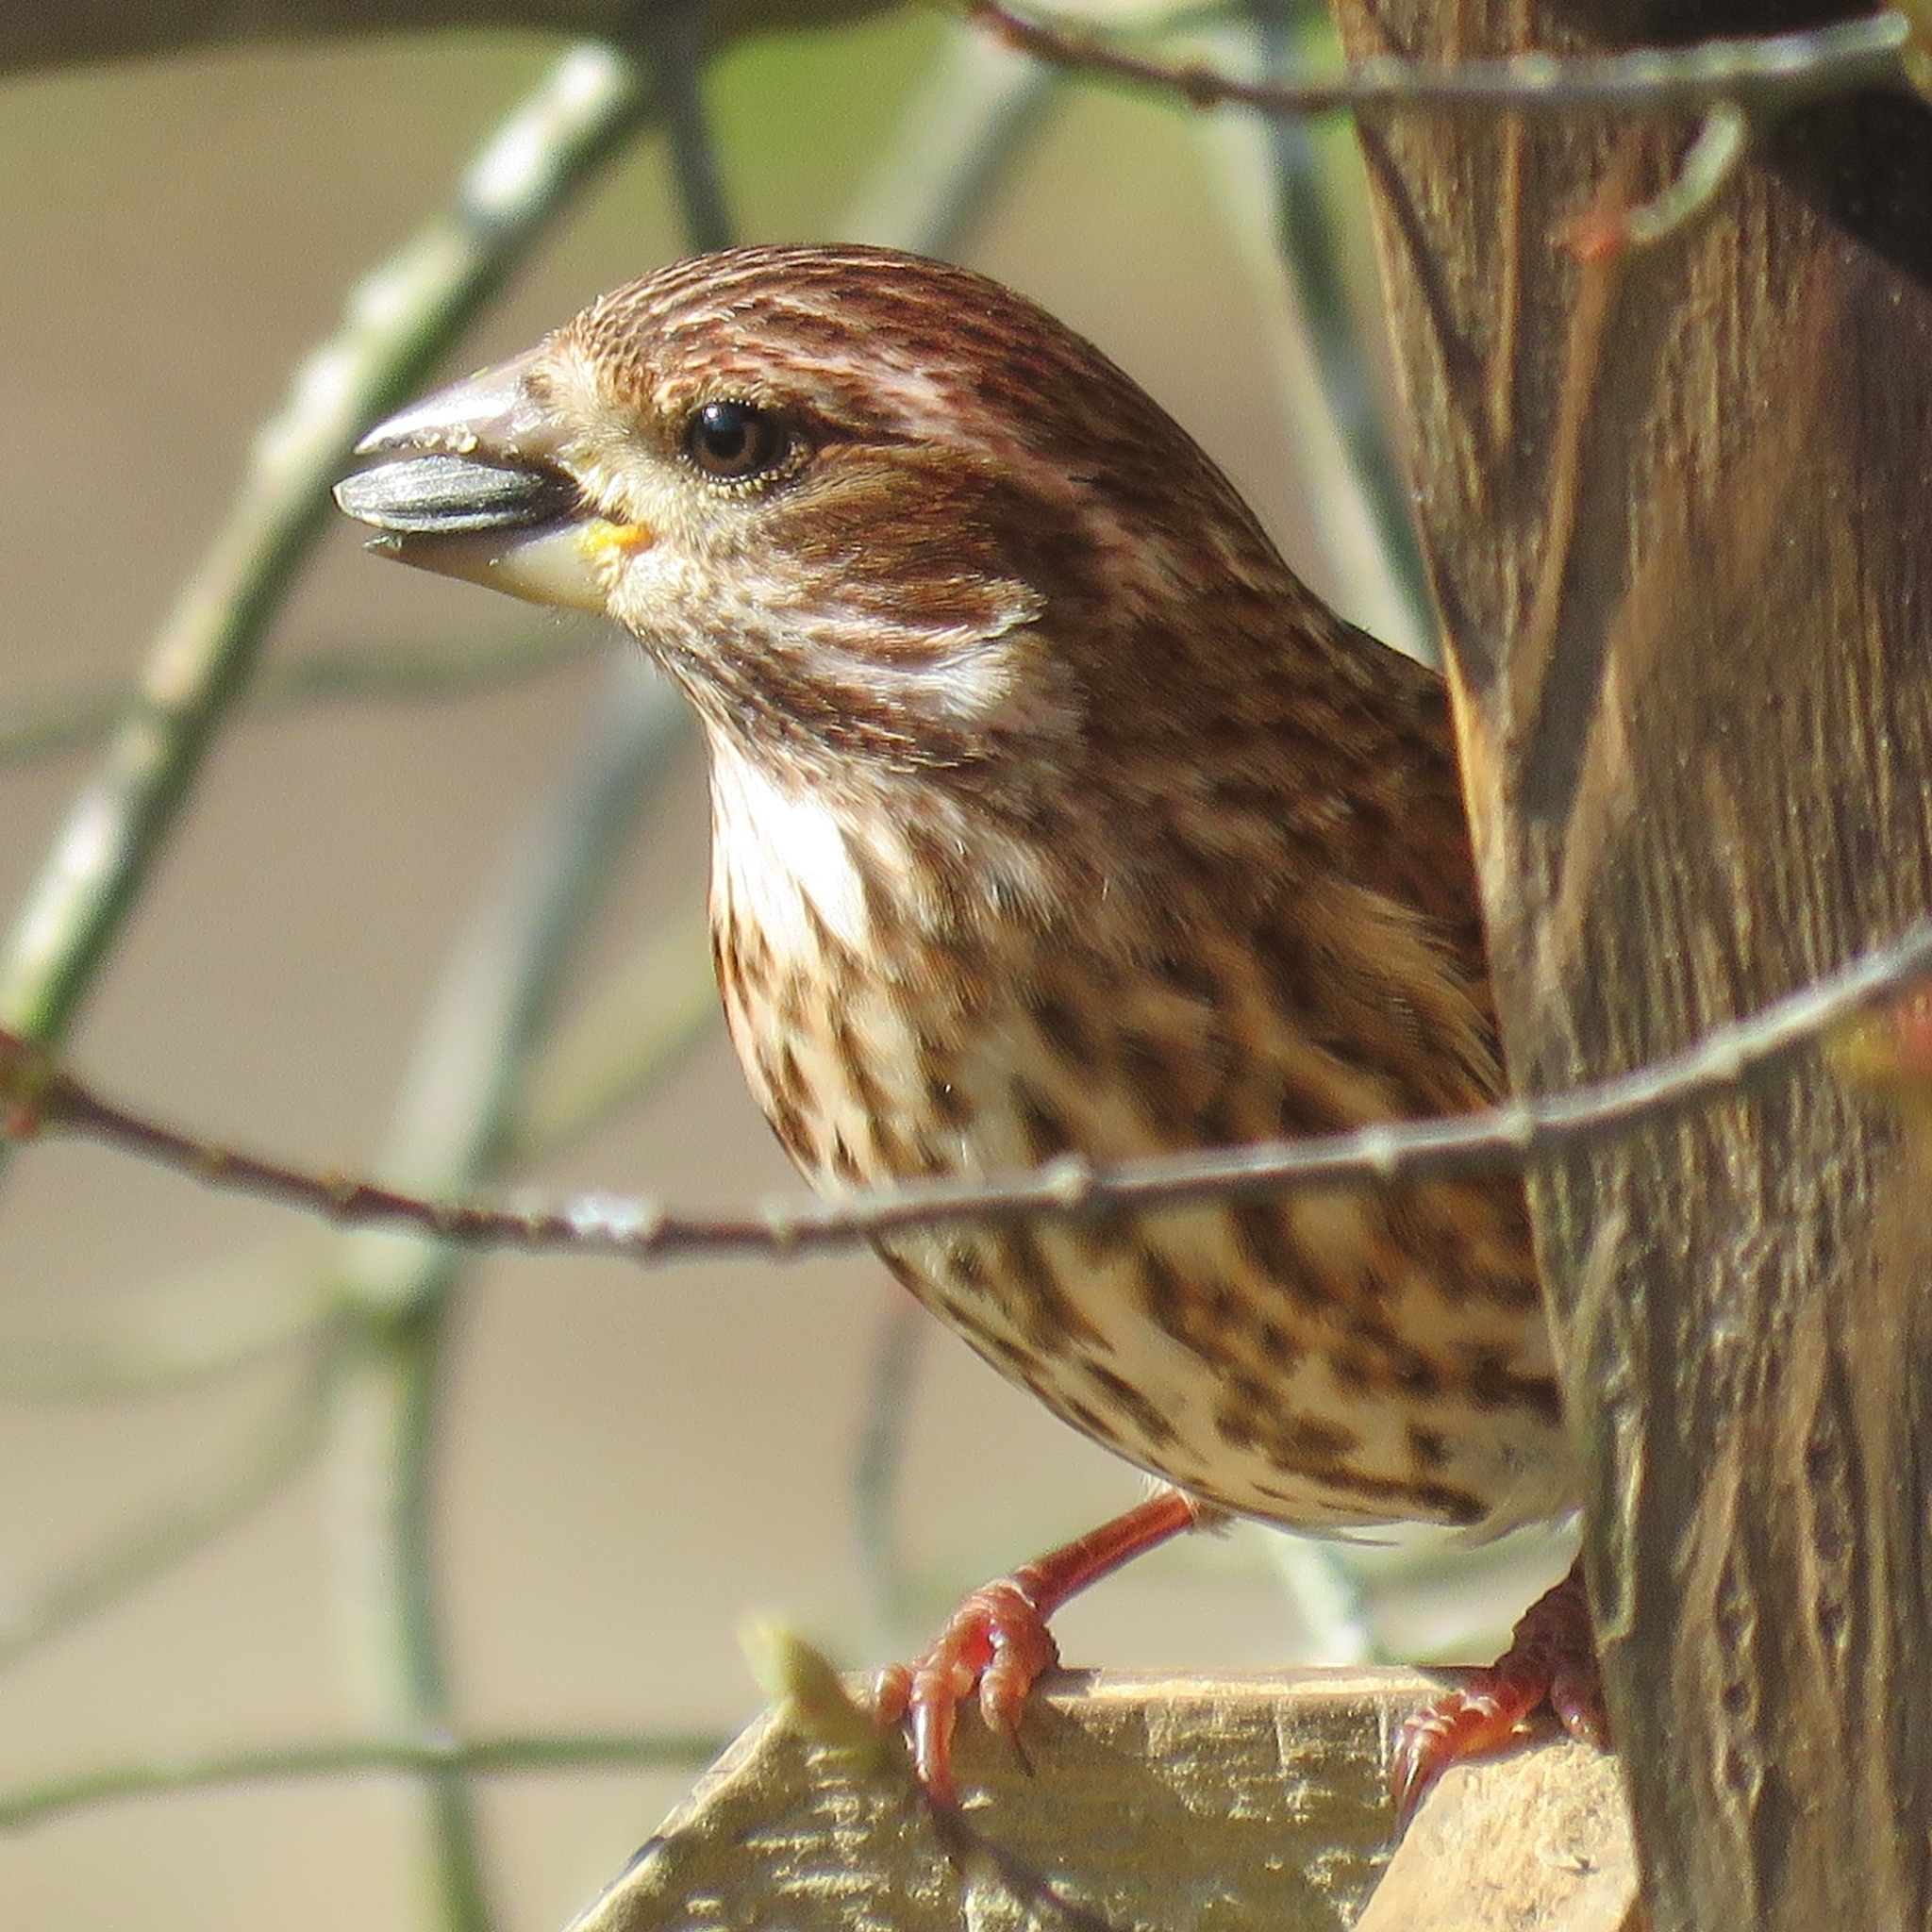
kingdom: Animalia
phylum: Chordata
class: Aves
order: Passeriformes
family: Fringillidae
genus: Haemorhous
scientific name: Haemorhous purpureus
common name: Purple finch
